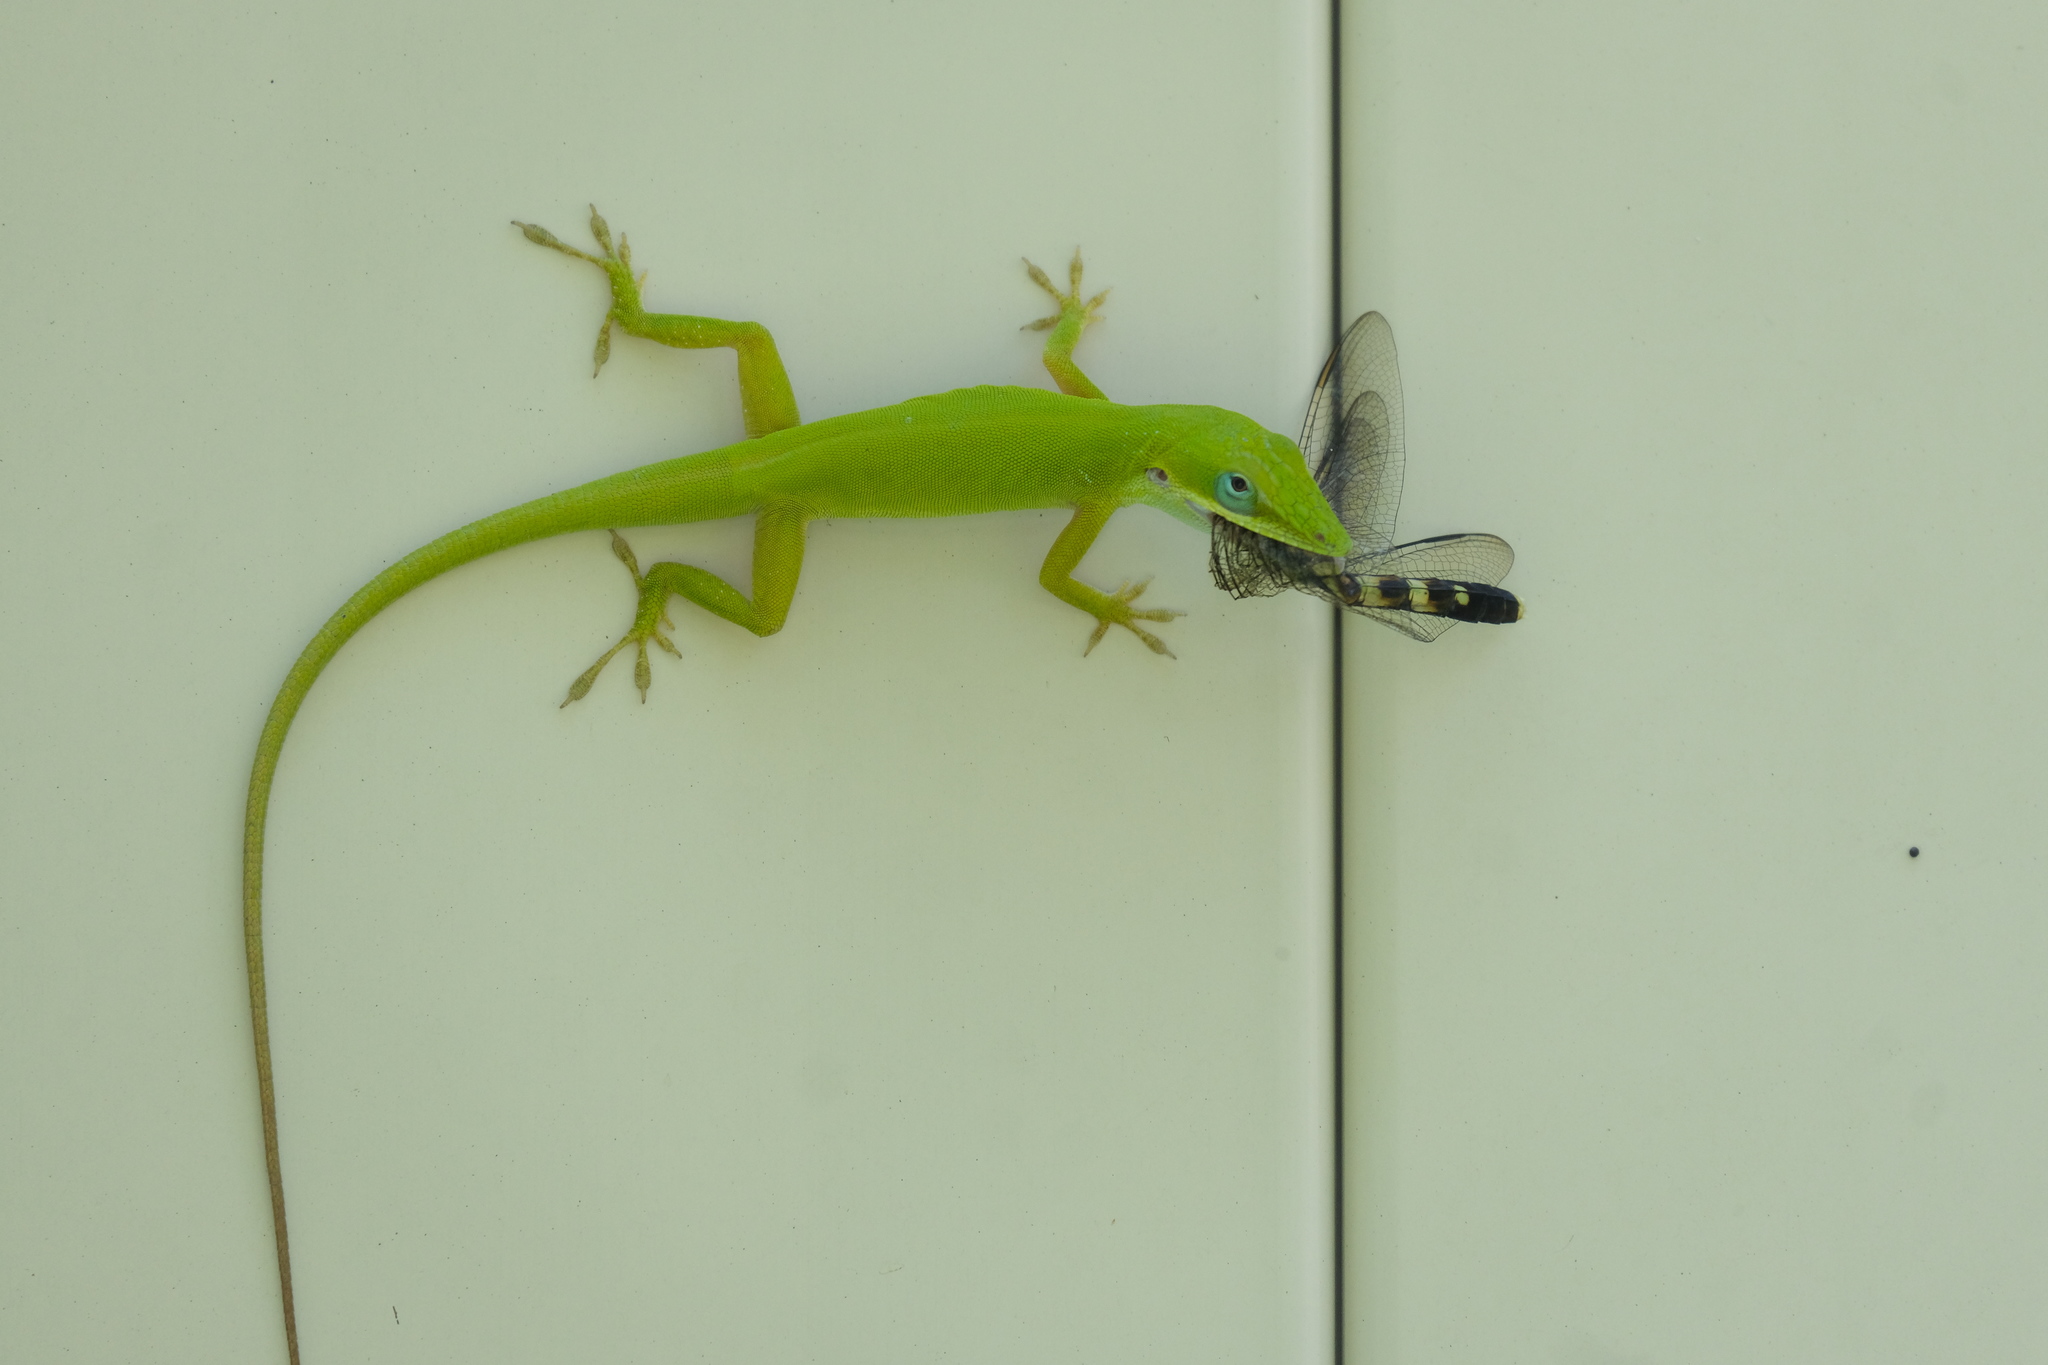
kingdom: Animalia
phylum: Chordata
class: Squamata
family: Dactyloidae
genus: Anolis
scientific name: Anolis allisoni
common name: Allison's anole
